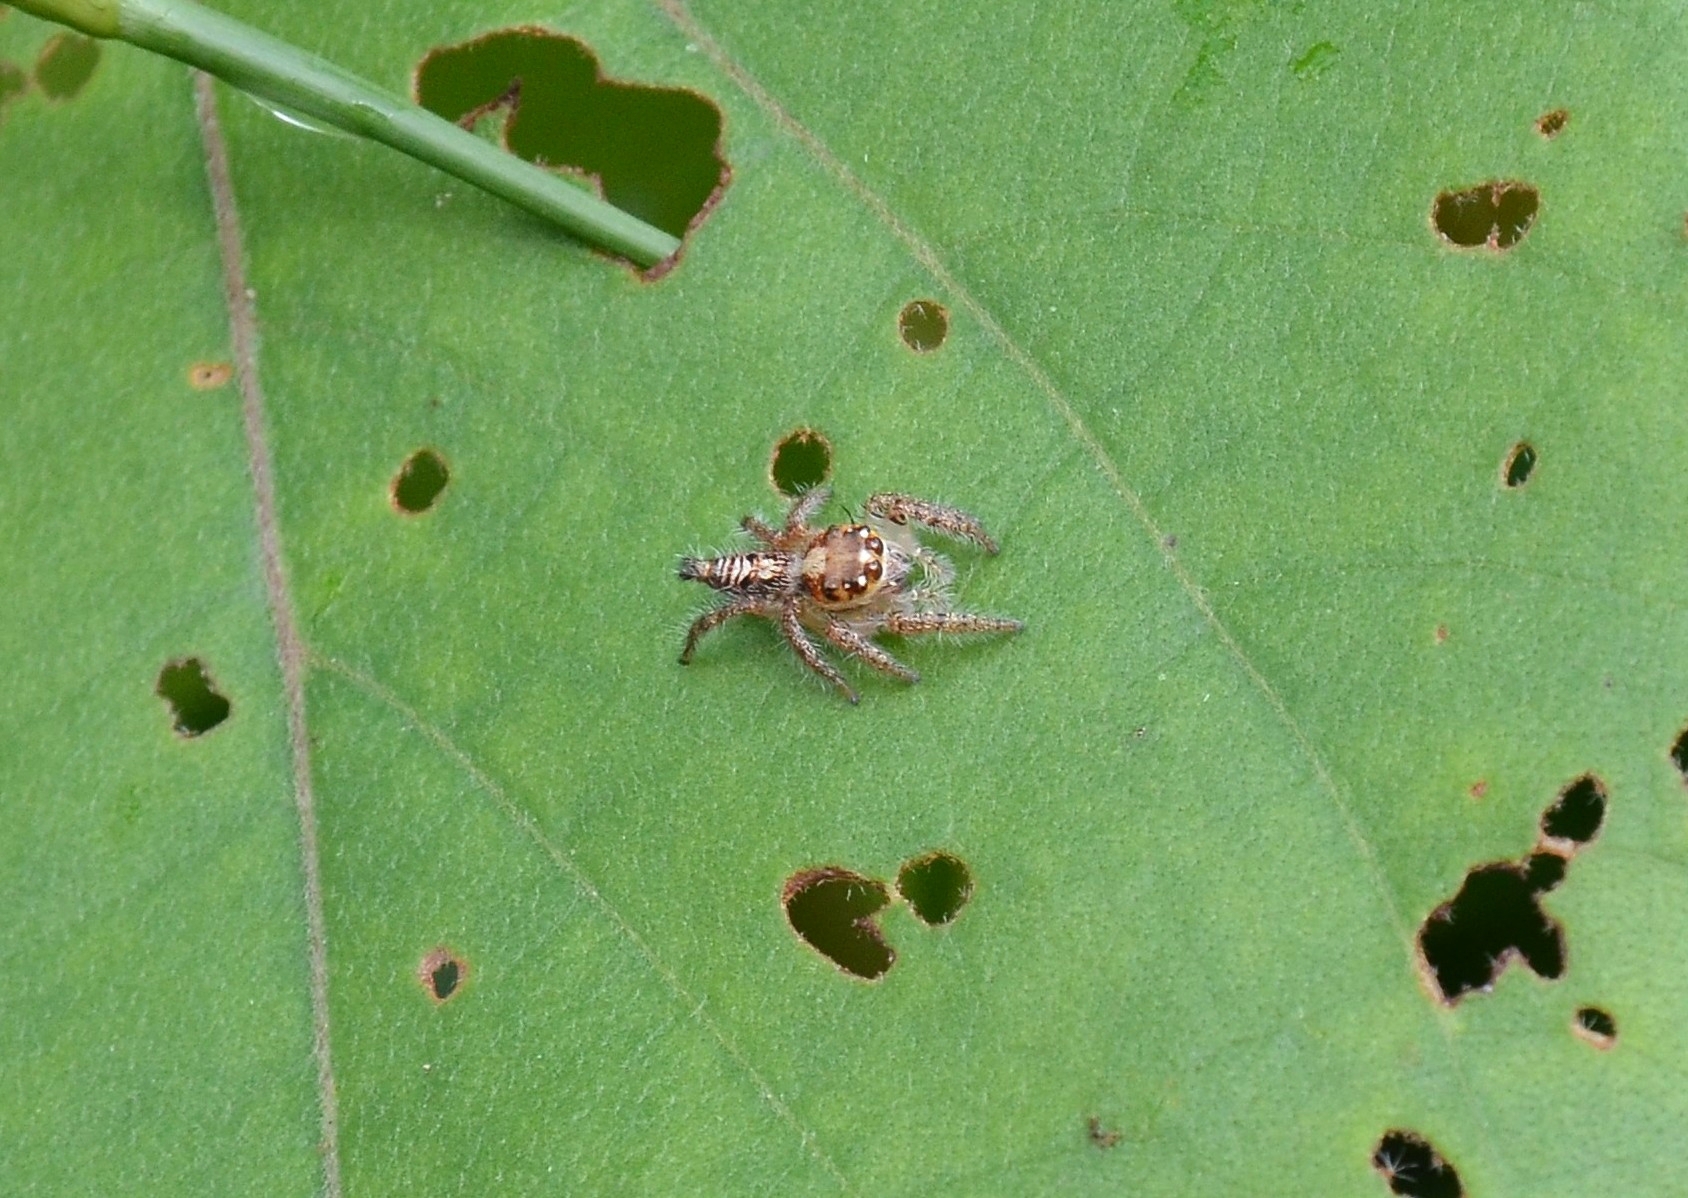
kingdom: Animalia
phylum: Arthropoda
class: Arachnida
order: Araneae
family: Salticidae
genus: Hyllus
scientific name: Hyllus semicupreus
